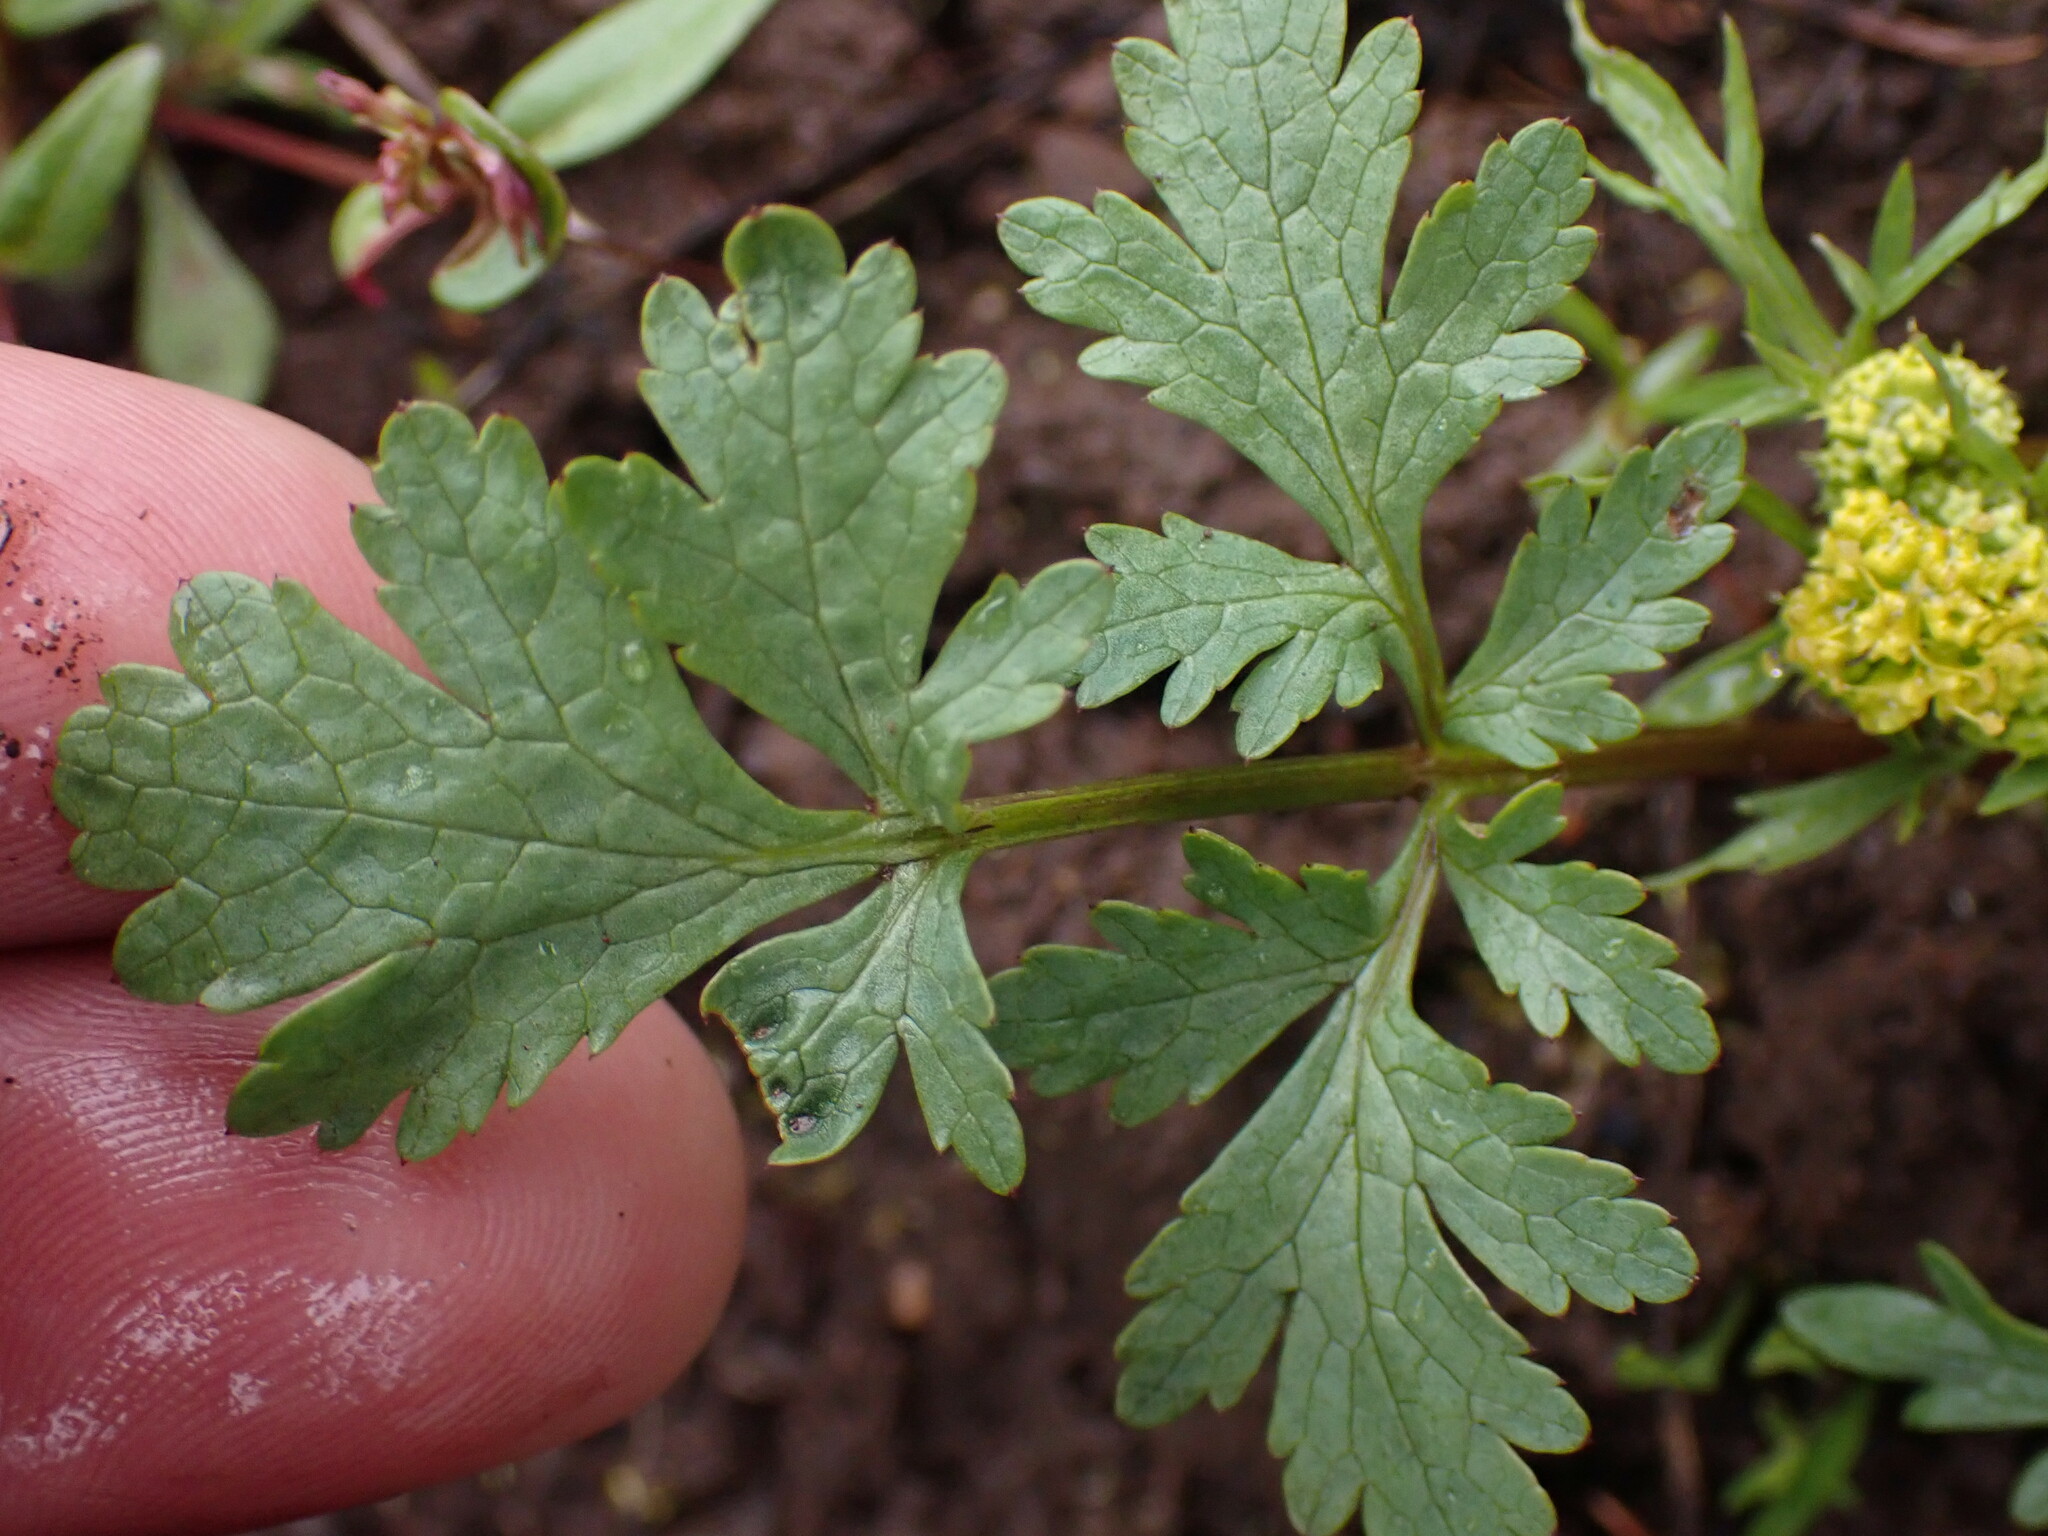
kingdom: Plantae
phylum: Tracheophyta
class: Magnoliopsida
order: Apiales
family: Apiaceae
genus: Sanicula
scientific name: Sanicula graveolens
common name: Sierra sanicle
